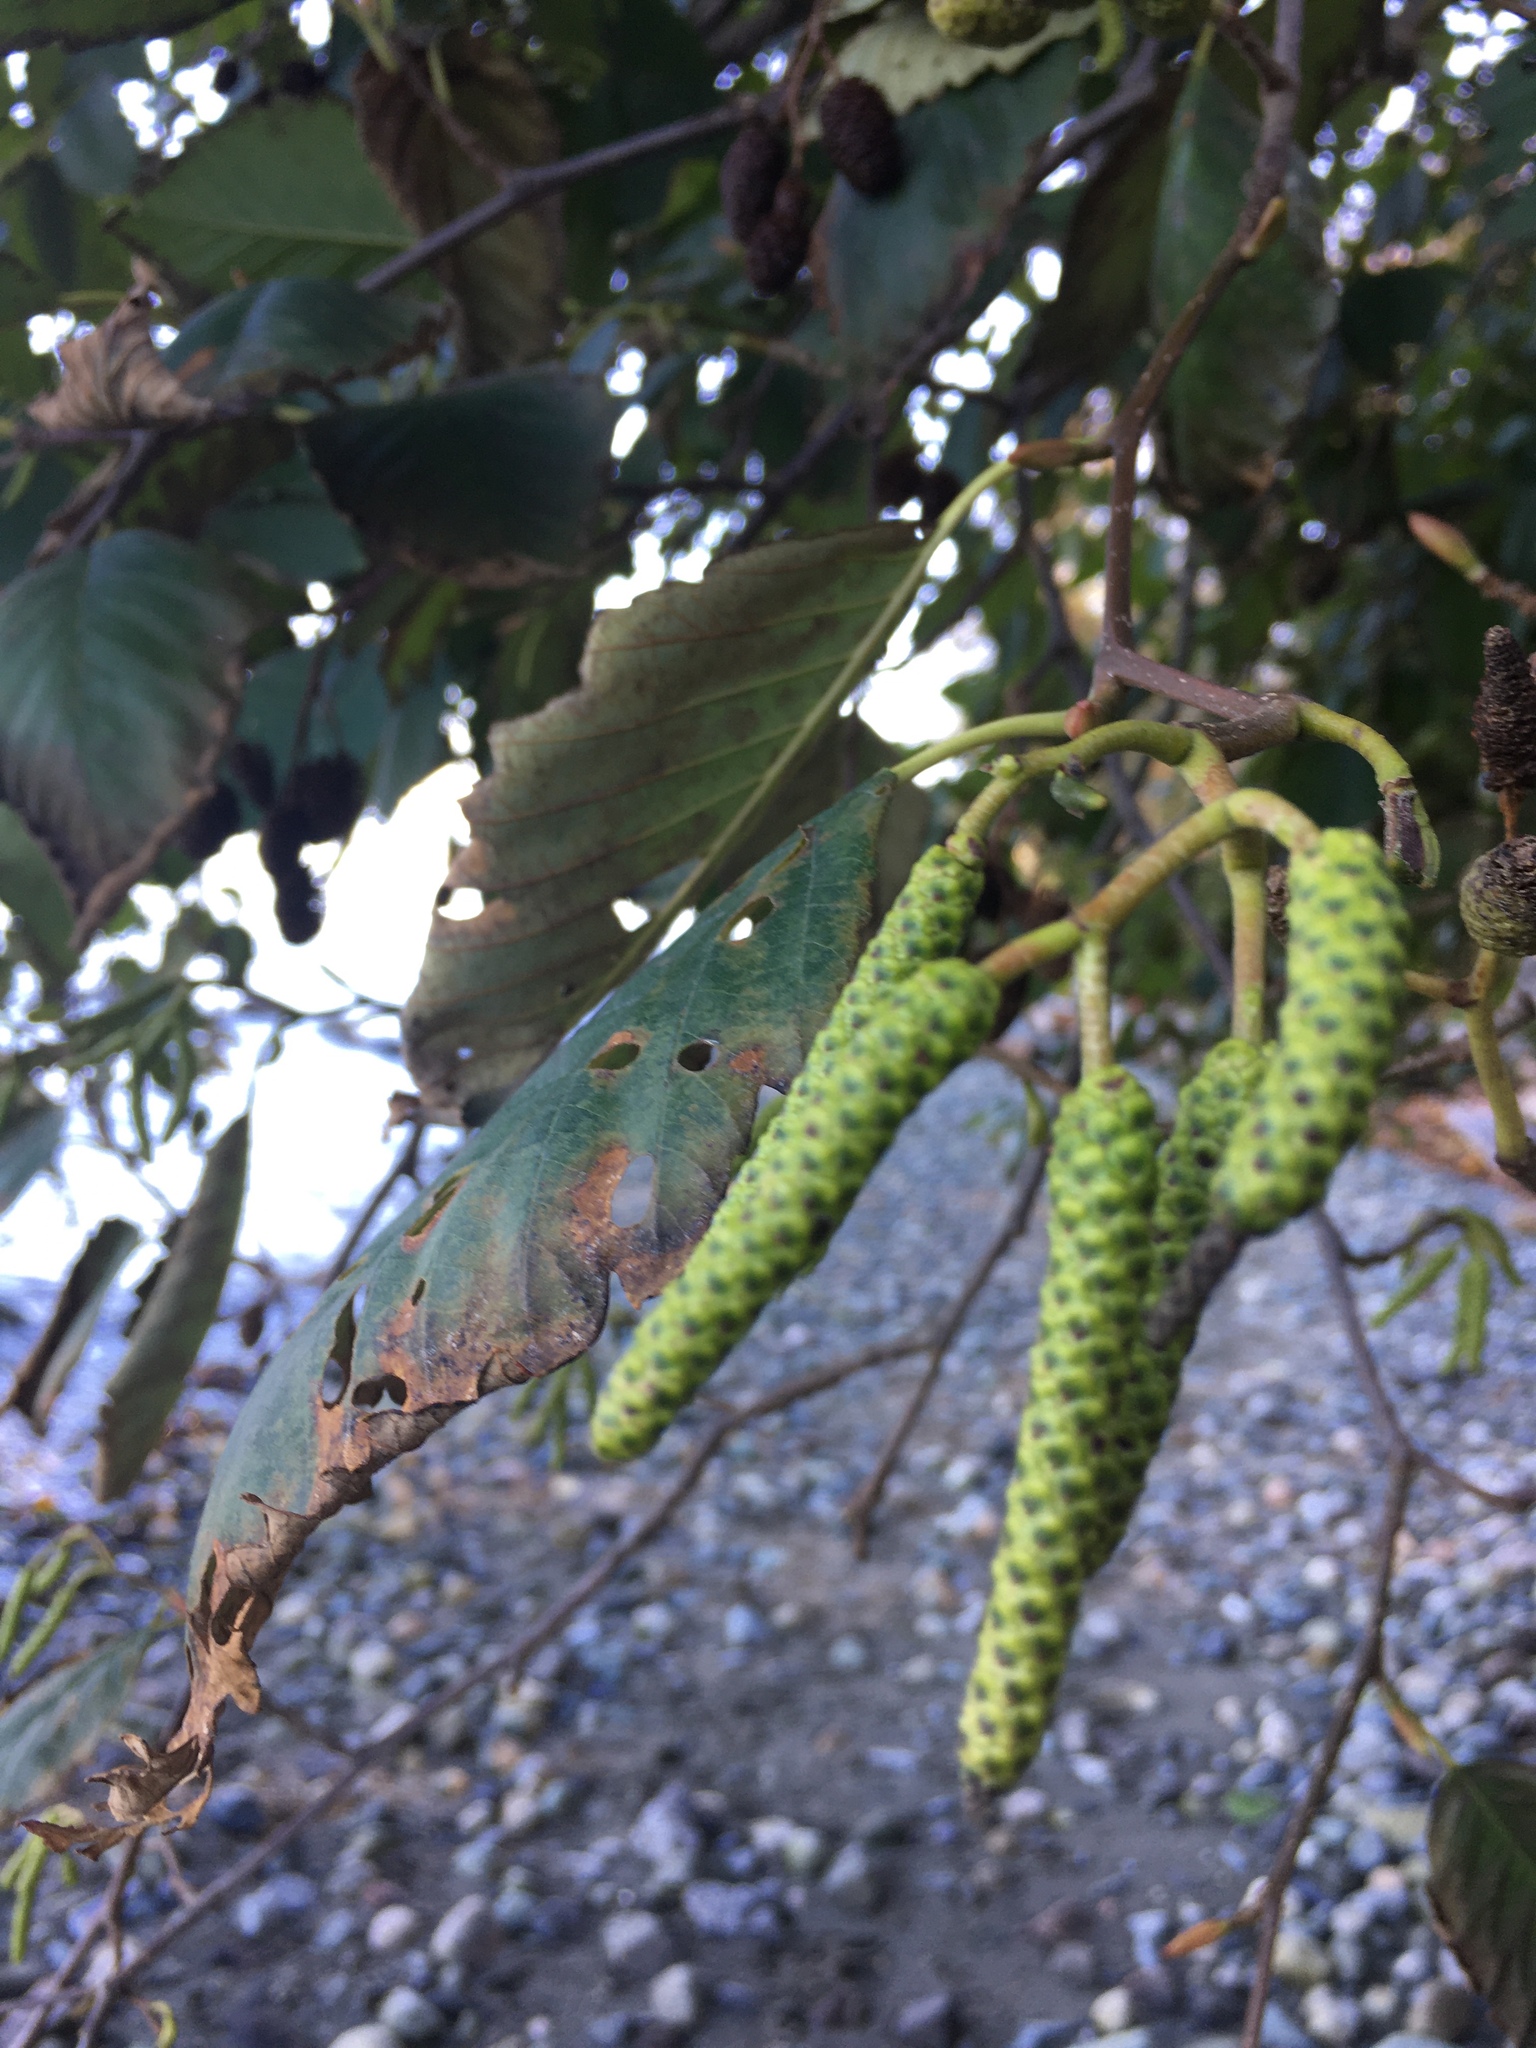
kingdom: Plantae
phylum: Tracheophyta
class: Magnoliopsida
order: Fagales
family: Betulaceae
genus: Alnus
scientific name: Alnus rubra
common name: Red alder
